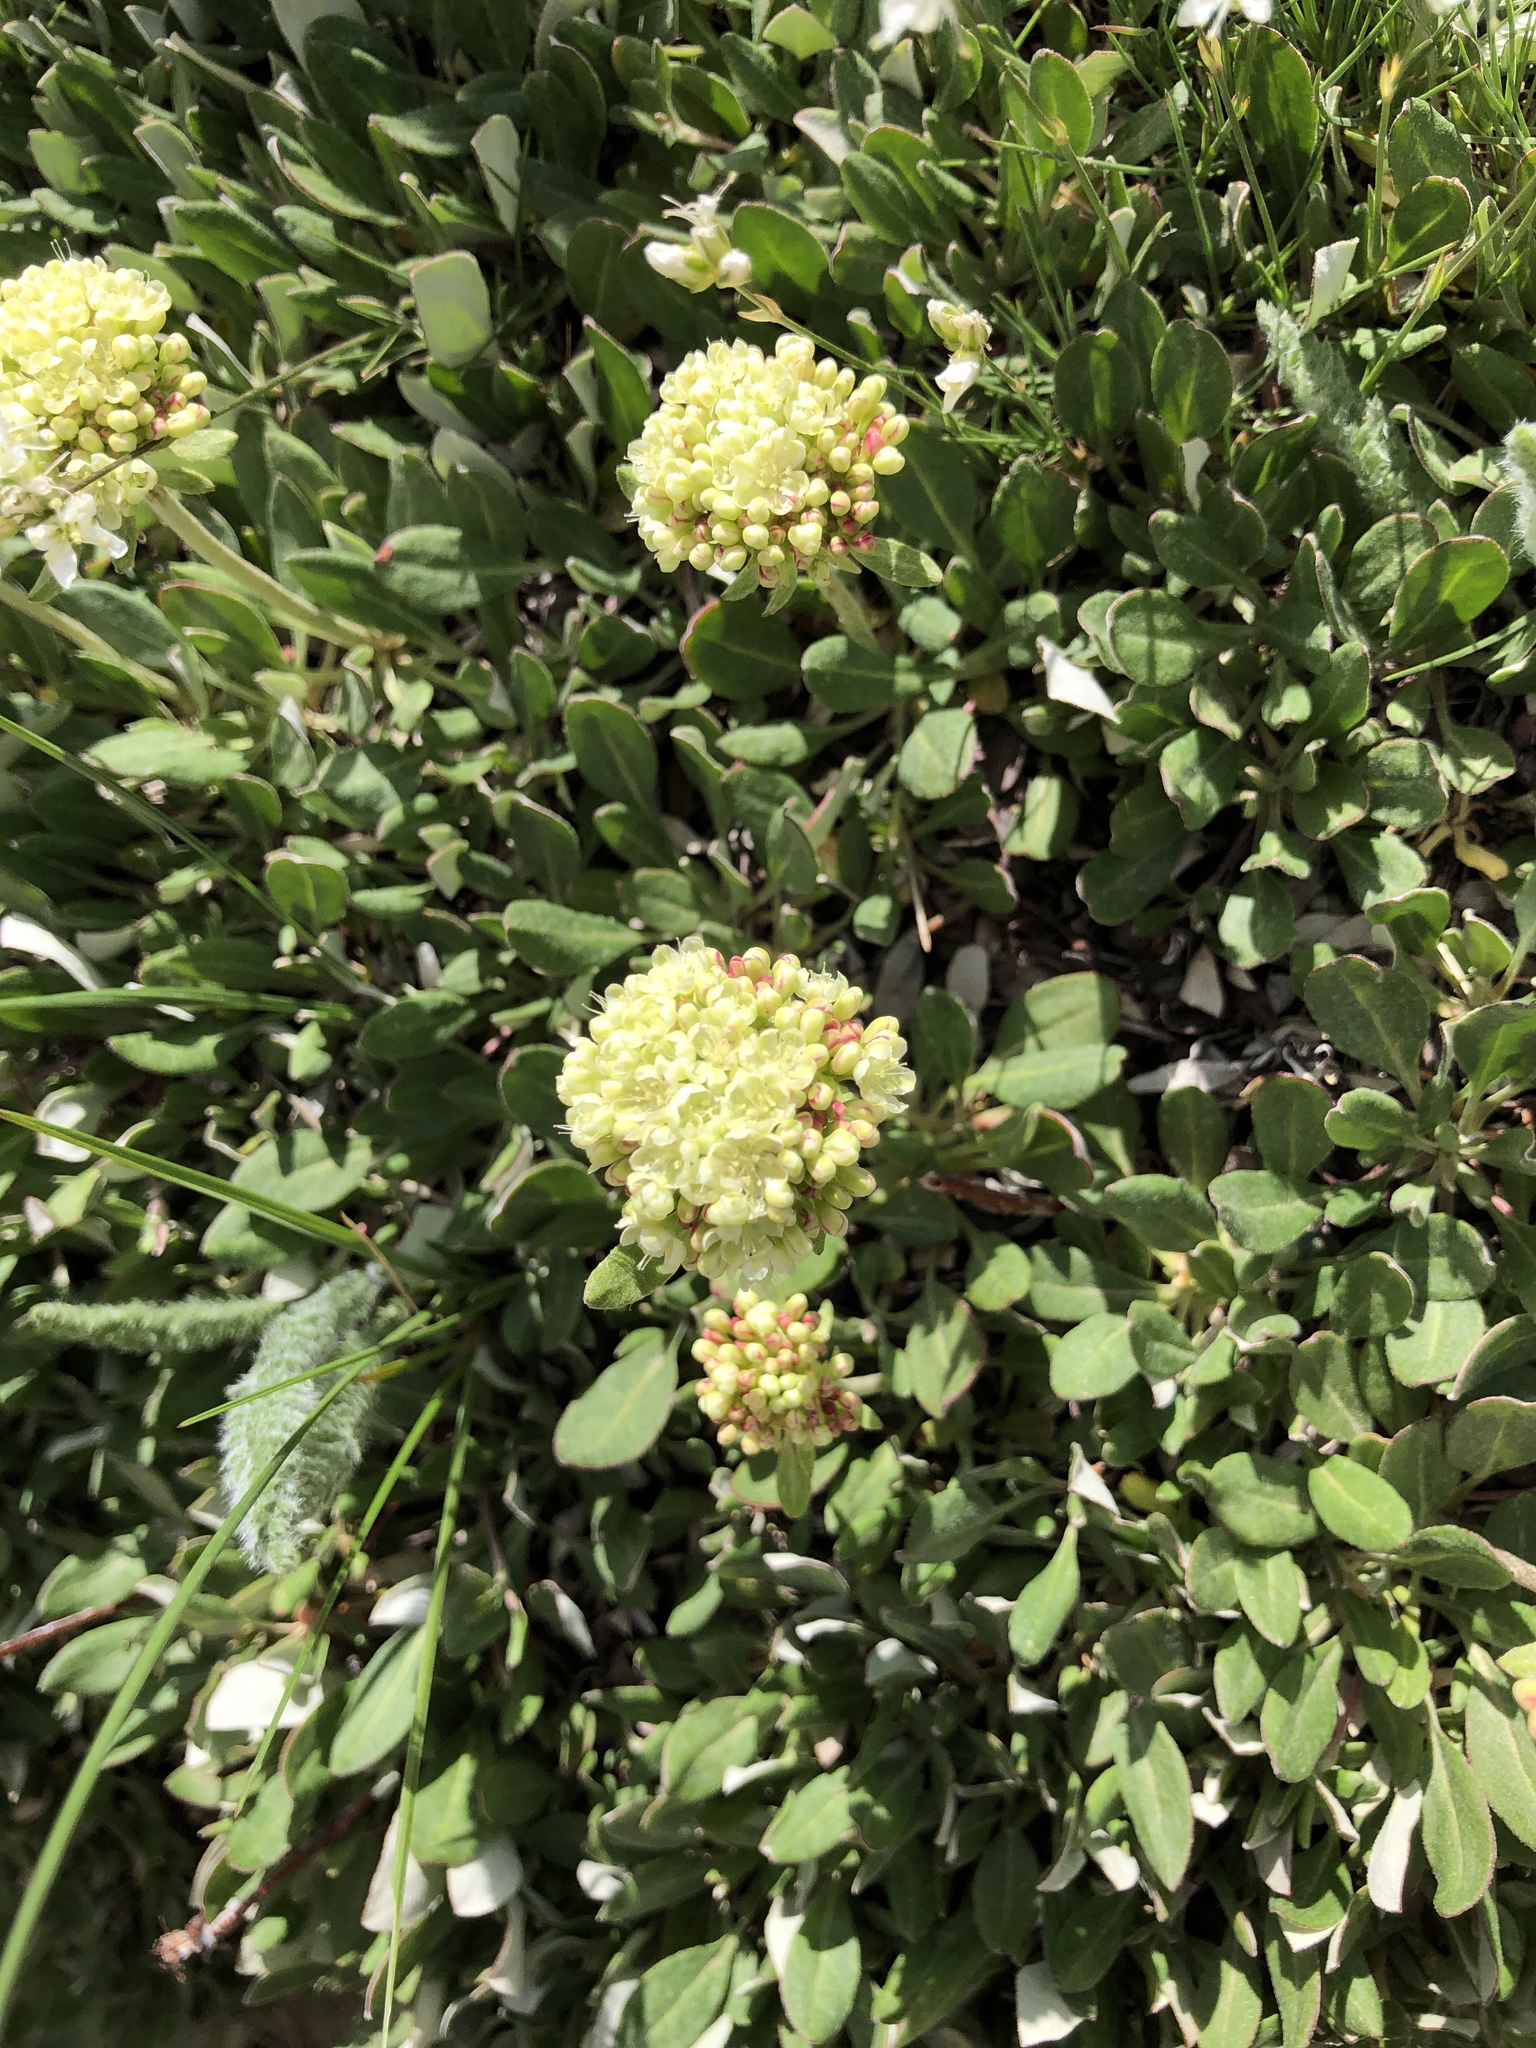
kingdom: Plantae
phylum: Tracheophyta
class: Magnoliopsida
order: Caryophyllales
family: Polygonaceae
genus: Eriogonum
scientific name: Eriogonum umbellatum
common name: Sulfur-buckwheat
